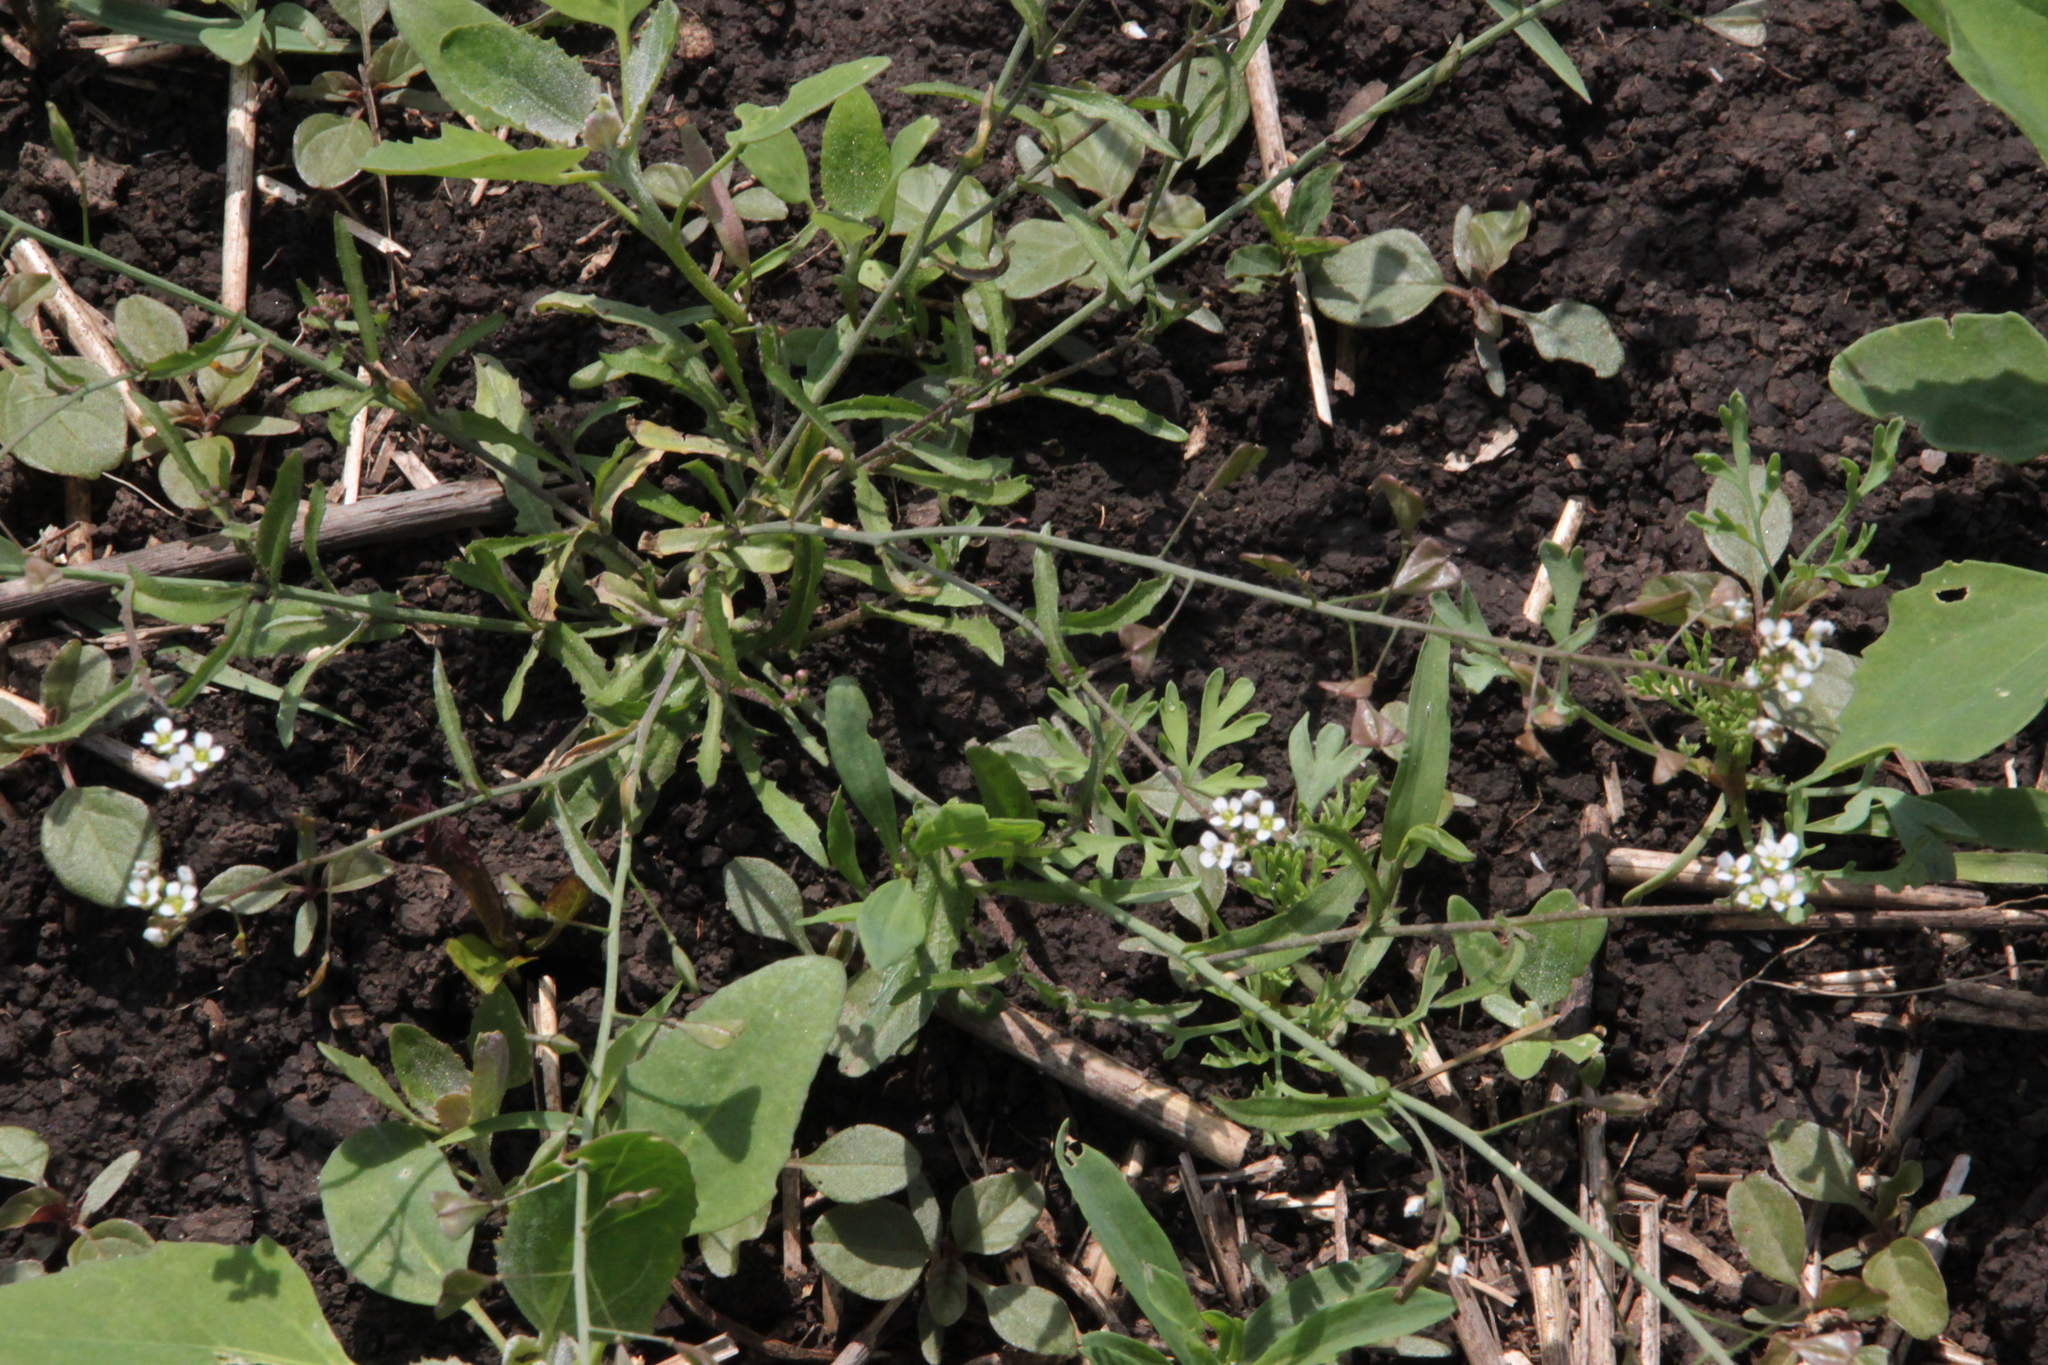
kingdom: Plantae
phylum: Tracheophyta
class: Magnoliopsida
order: Brassicales
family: Brassicaceae
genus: Capsella
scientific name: Capsella bursa-pastoris
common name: Shepherd's purse
